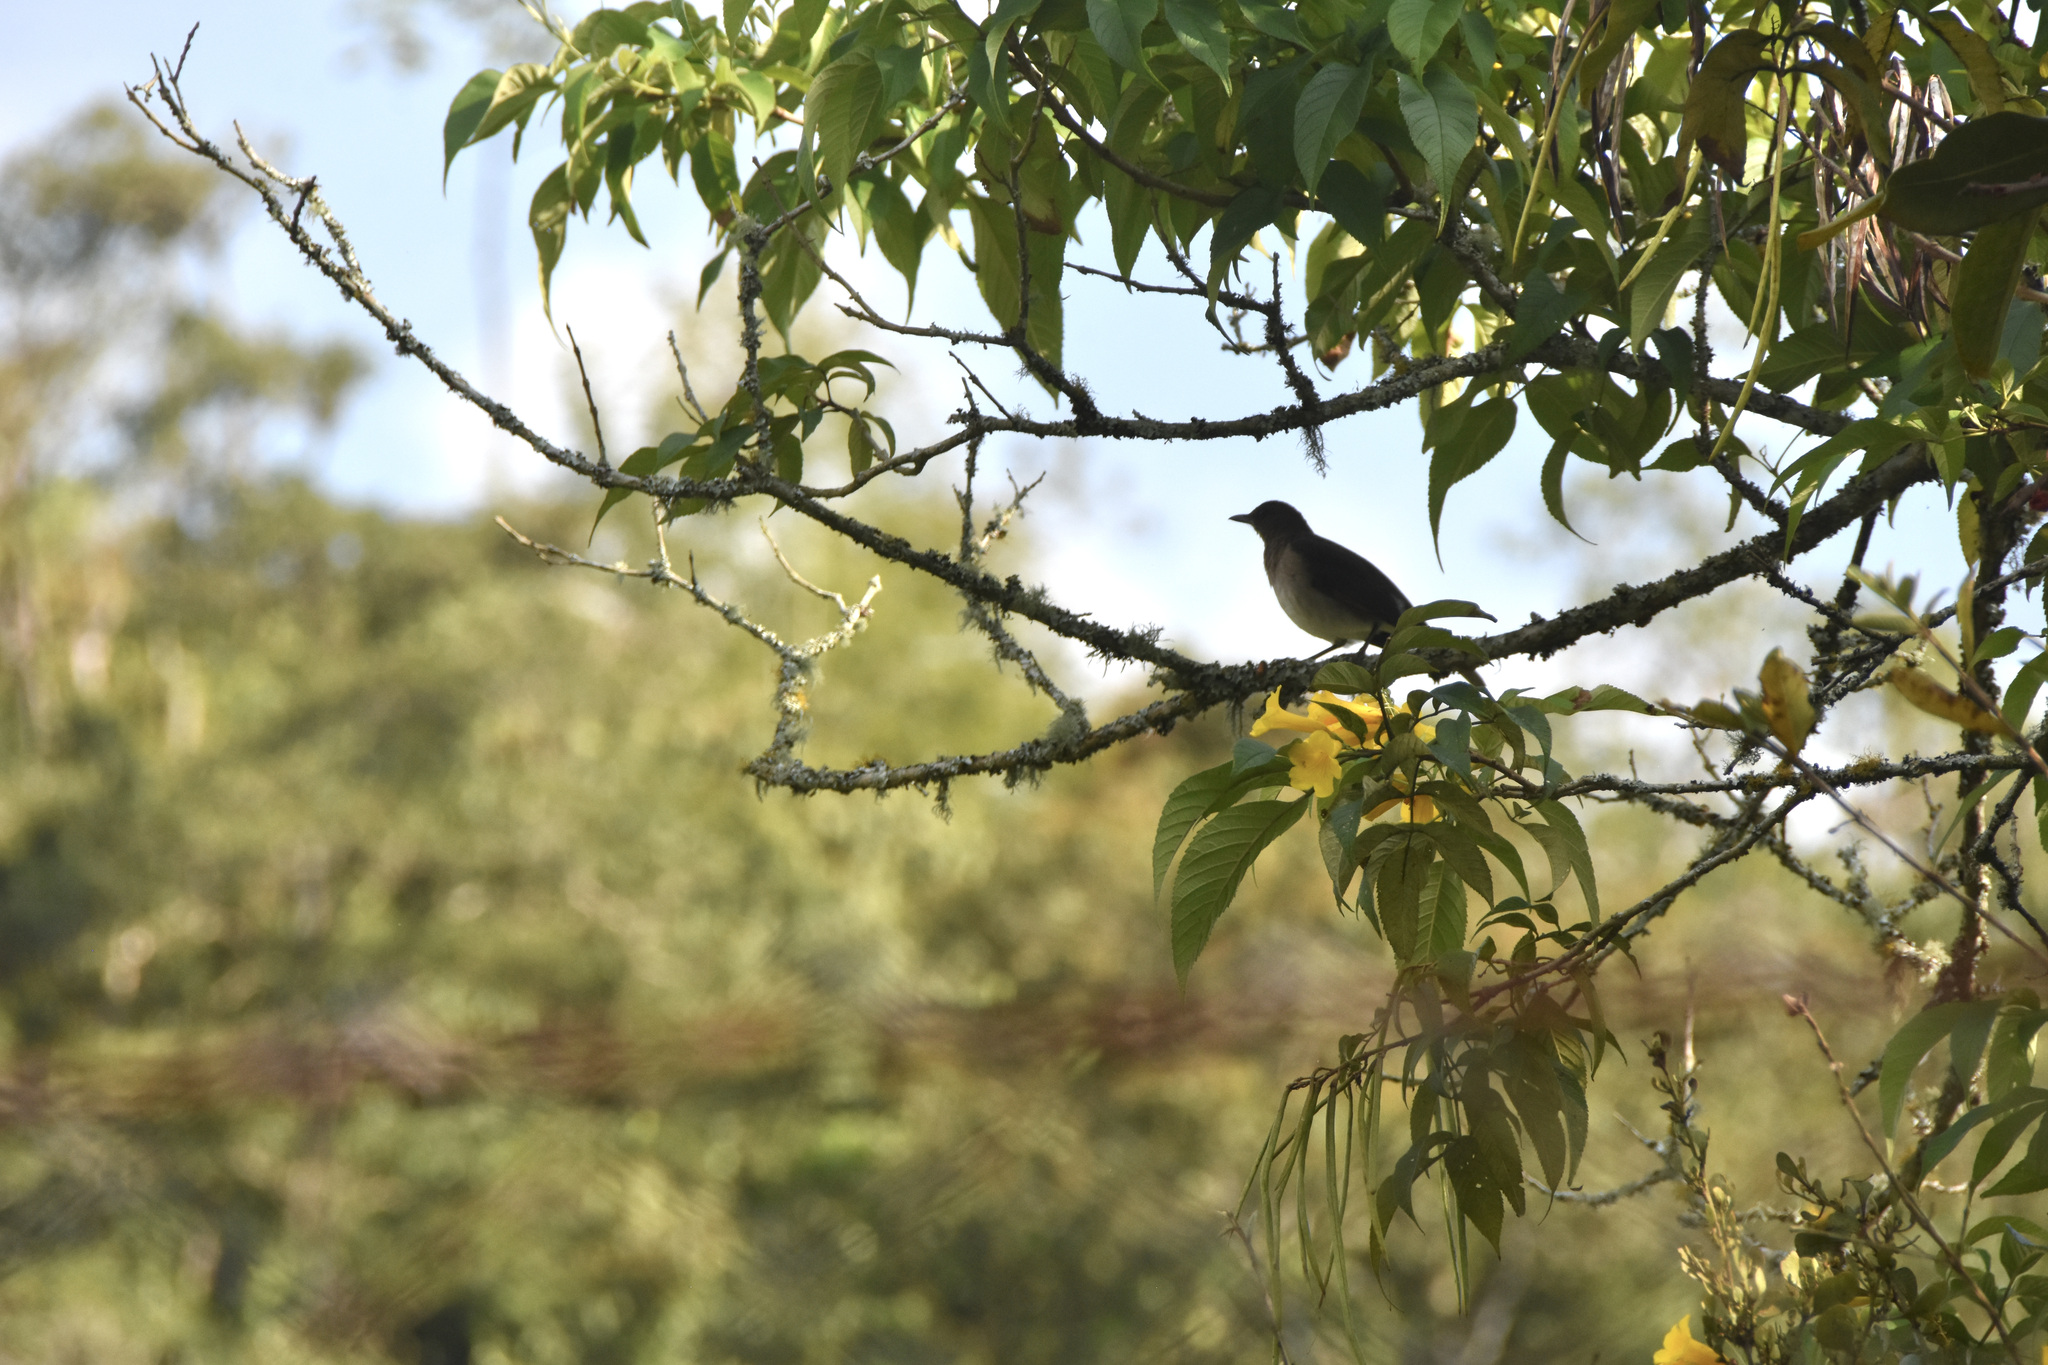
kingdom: Animalia
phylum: Chordata
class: Aves
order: Passeriformes
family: Turdidae
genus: Turdus
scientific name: Turdus ignobilis
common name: Black-billed thrush
